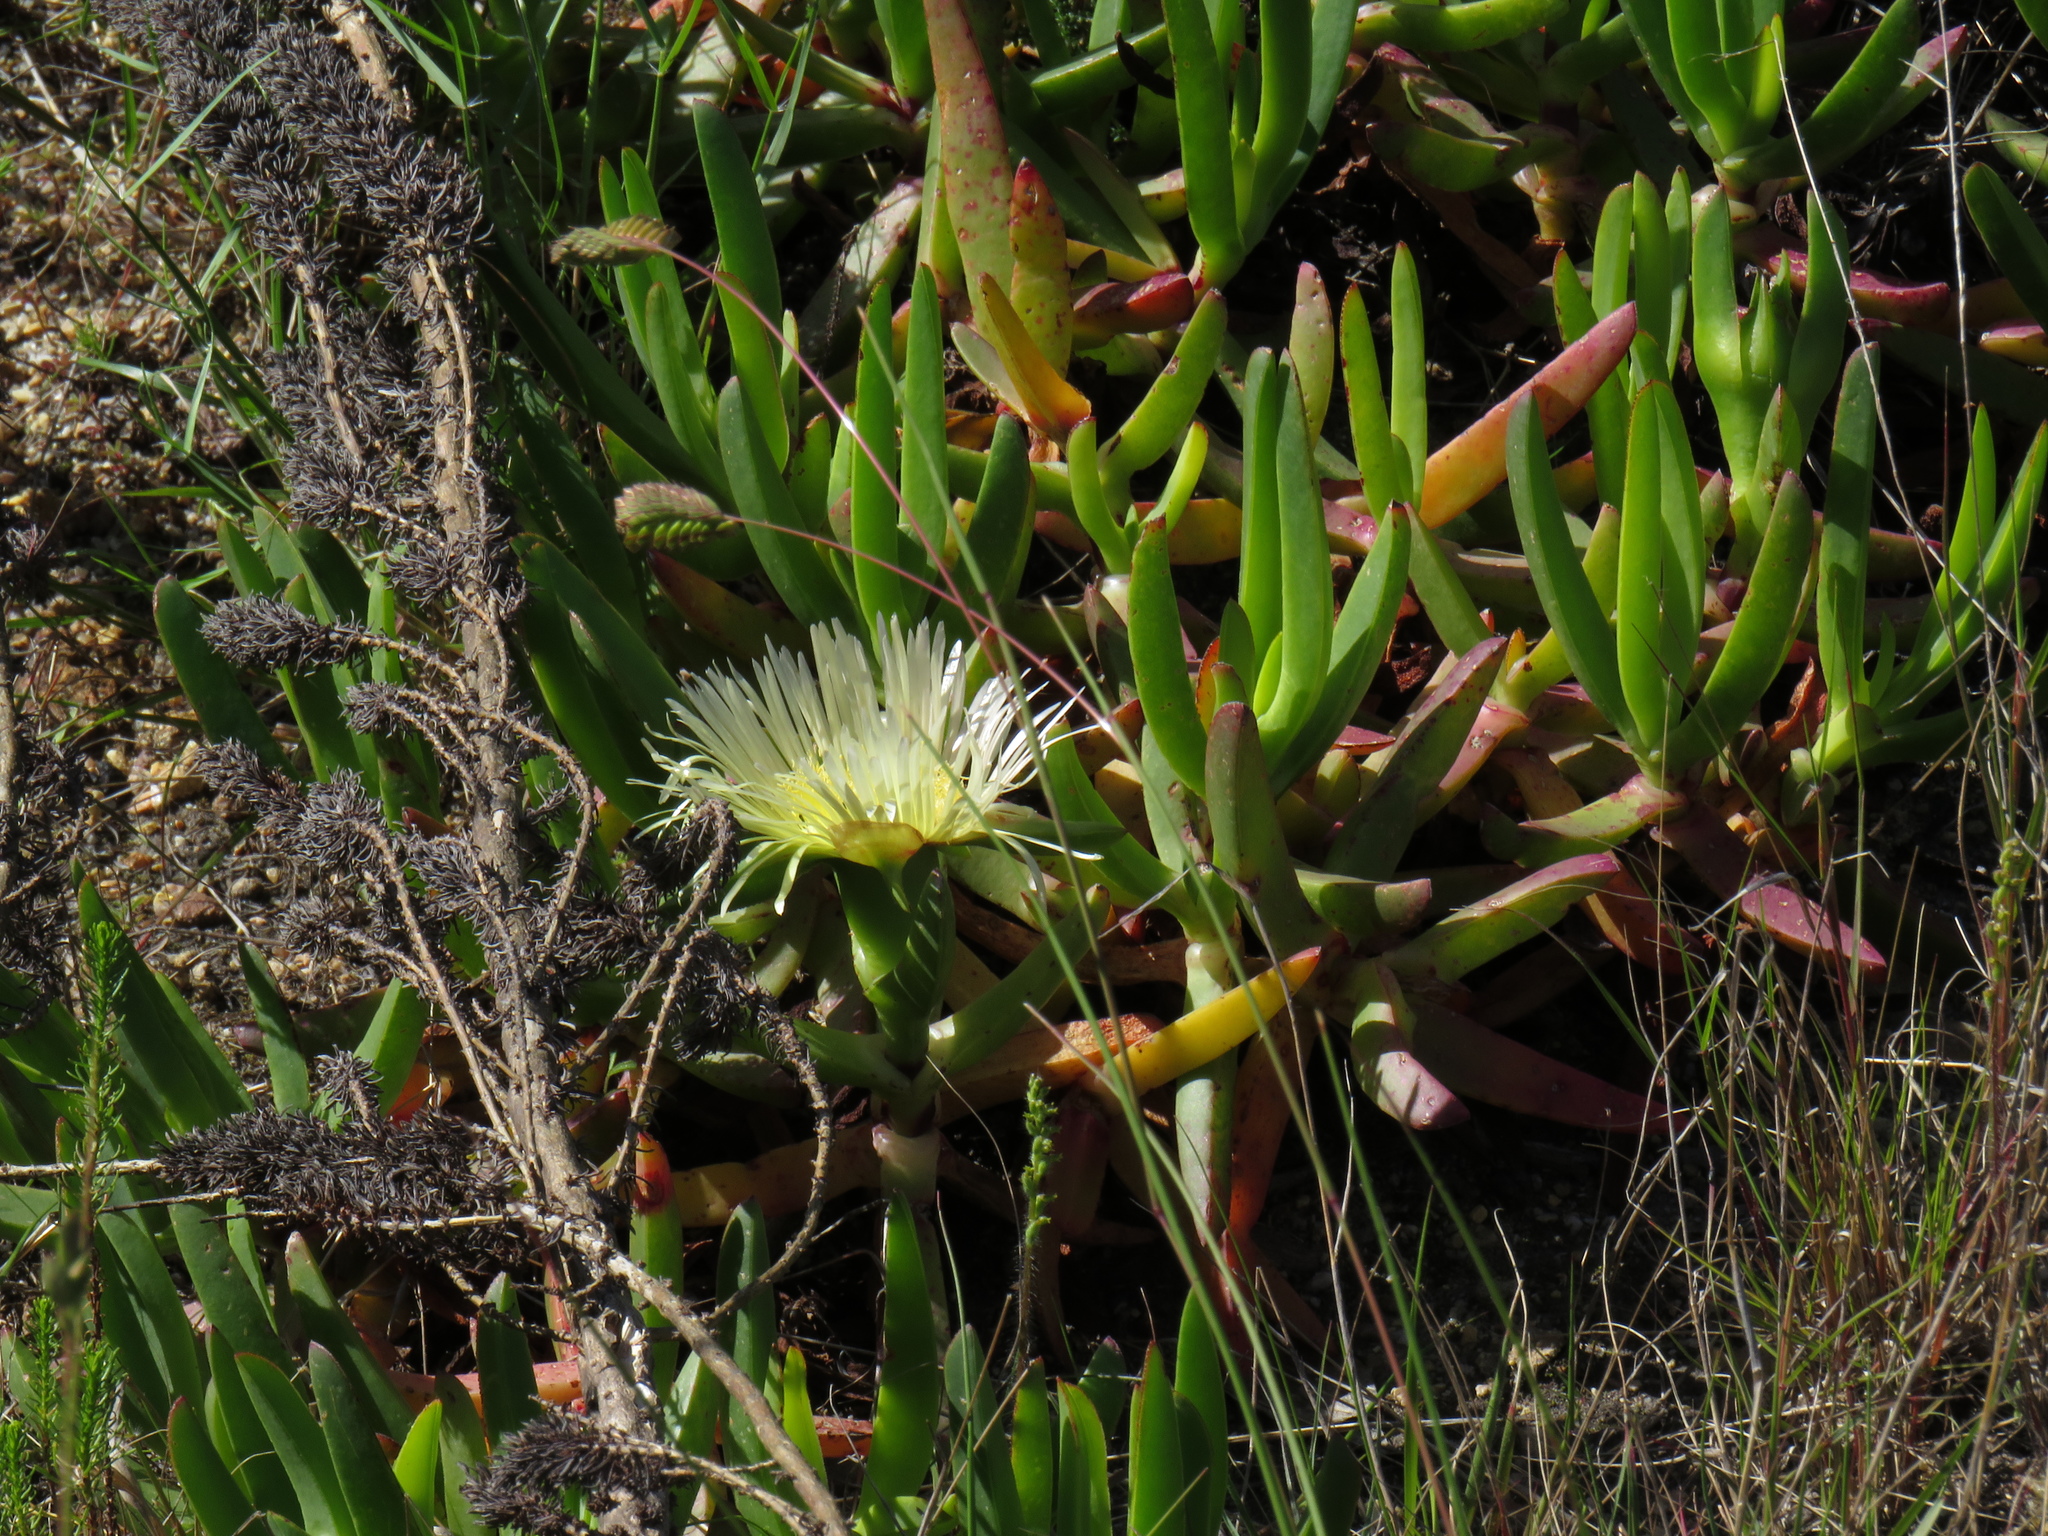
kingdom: Plantae
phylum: Tracheophyta
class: Magnoliopsida
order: Caryophyllales
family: Aizoaceae
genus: Carpobrotus
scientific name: Carpobrotus edulis
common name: Hottentot-fig
